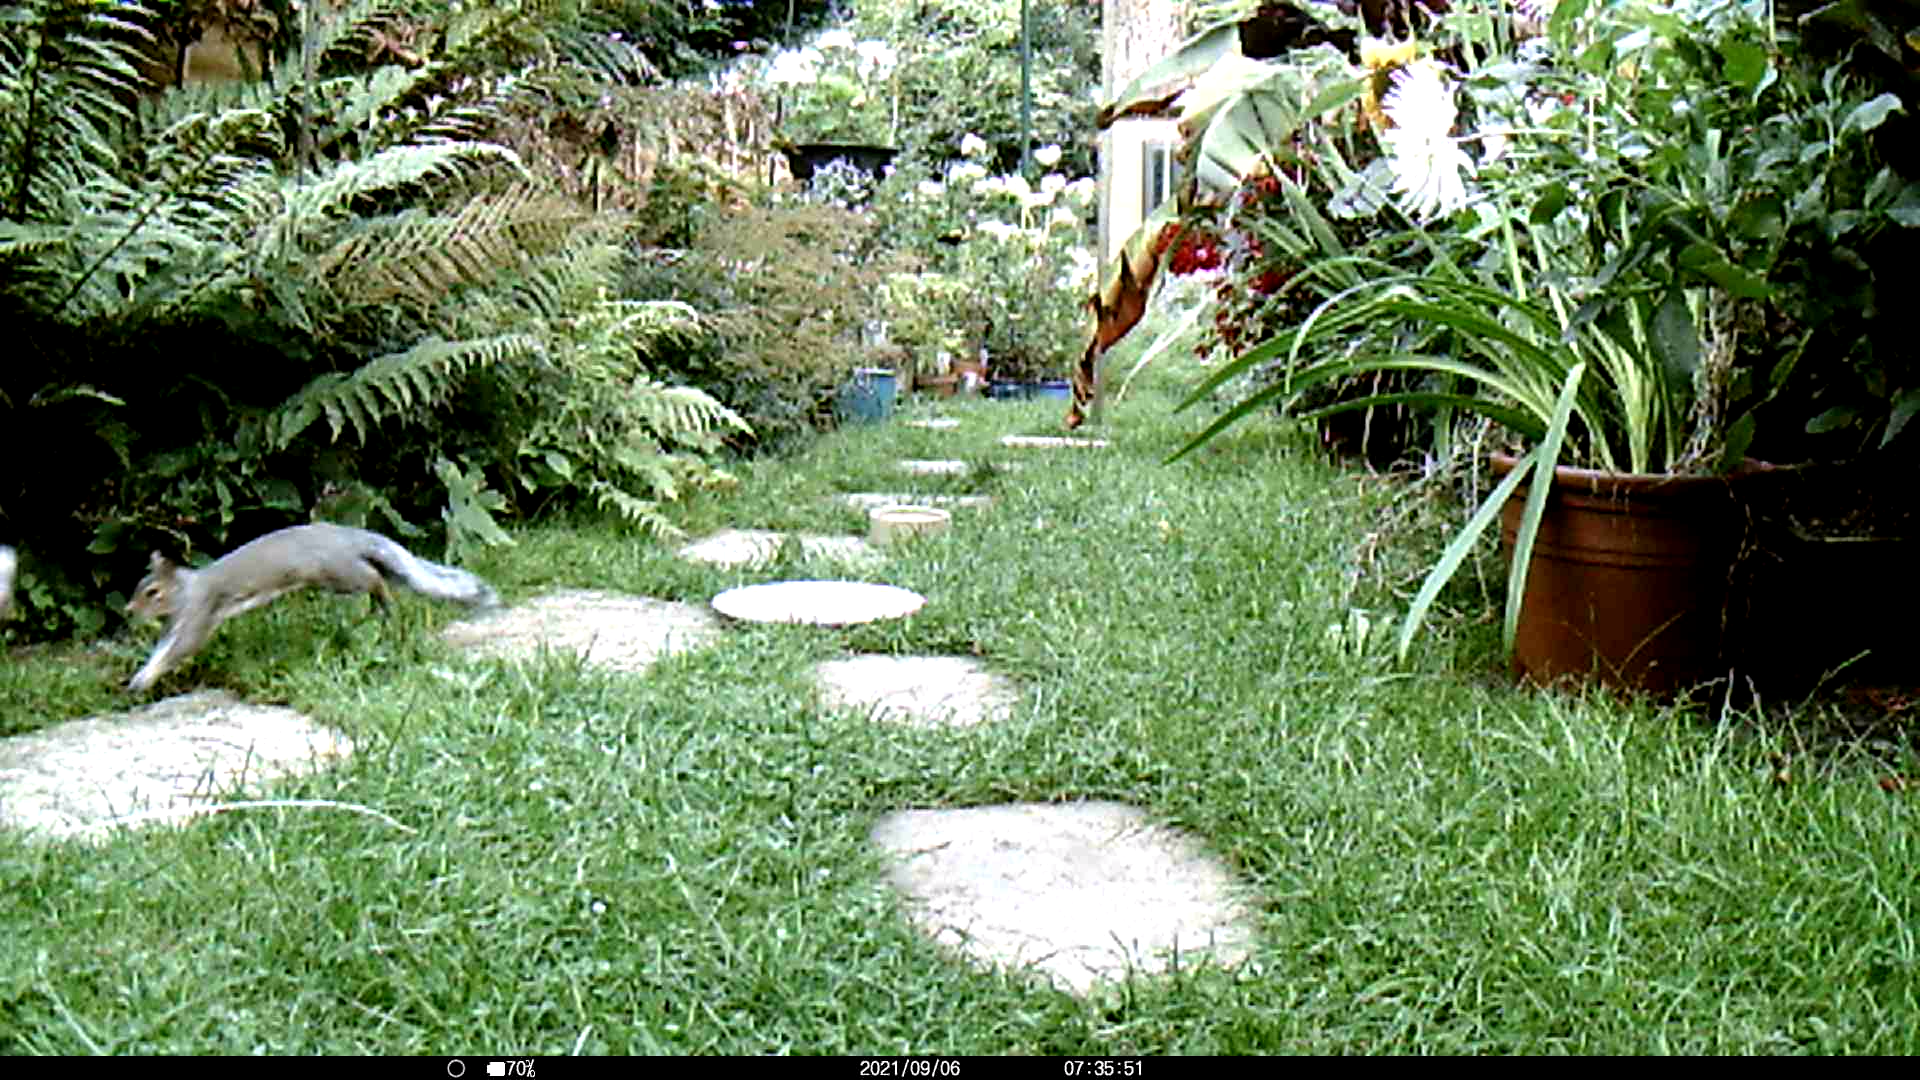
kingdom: Animalia
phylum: Chordata
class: Mammalia
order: Rodentia
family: Sciuridae
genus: Sciurus
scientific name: Sciurus carolinensis
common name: Eastern gray squirrel
